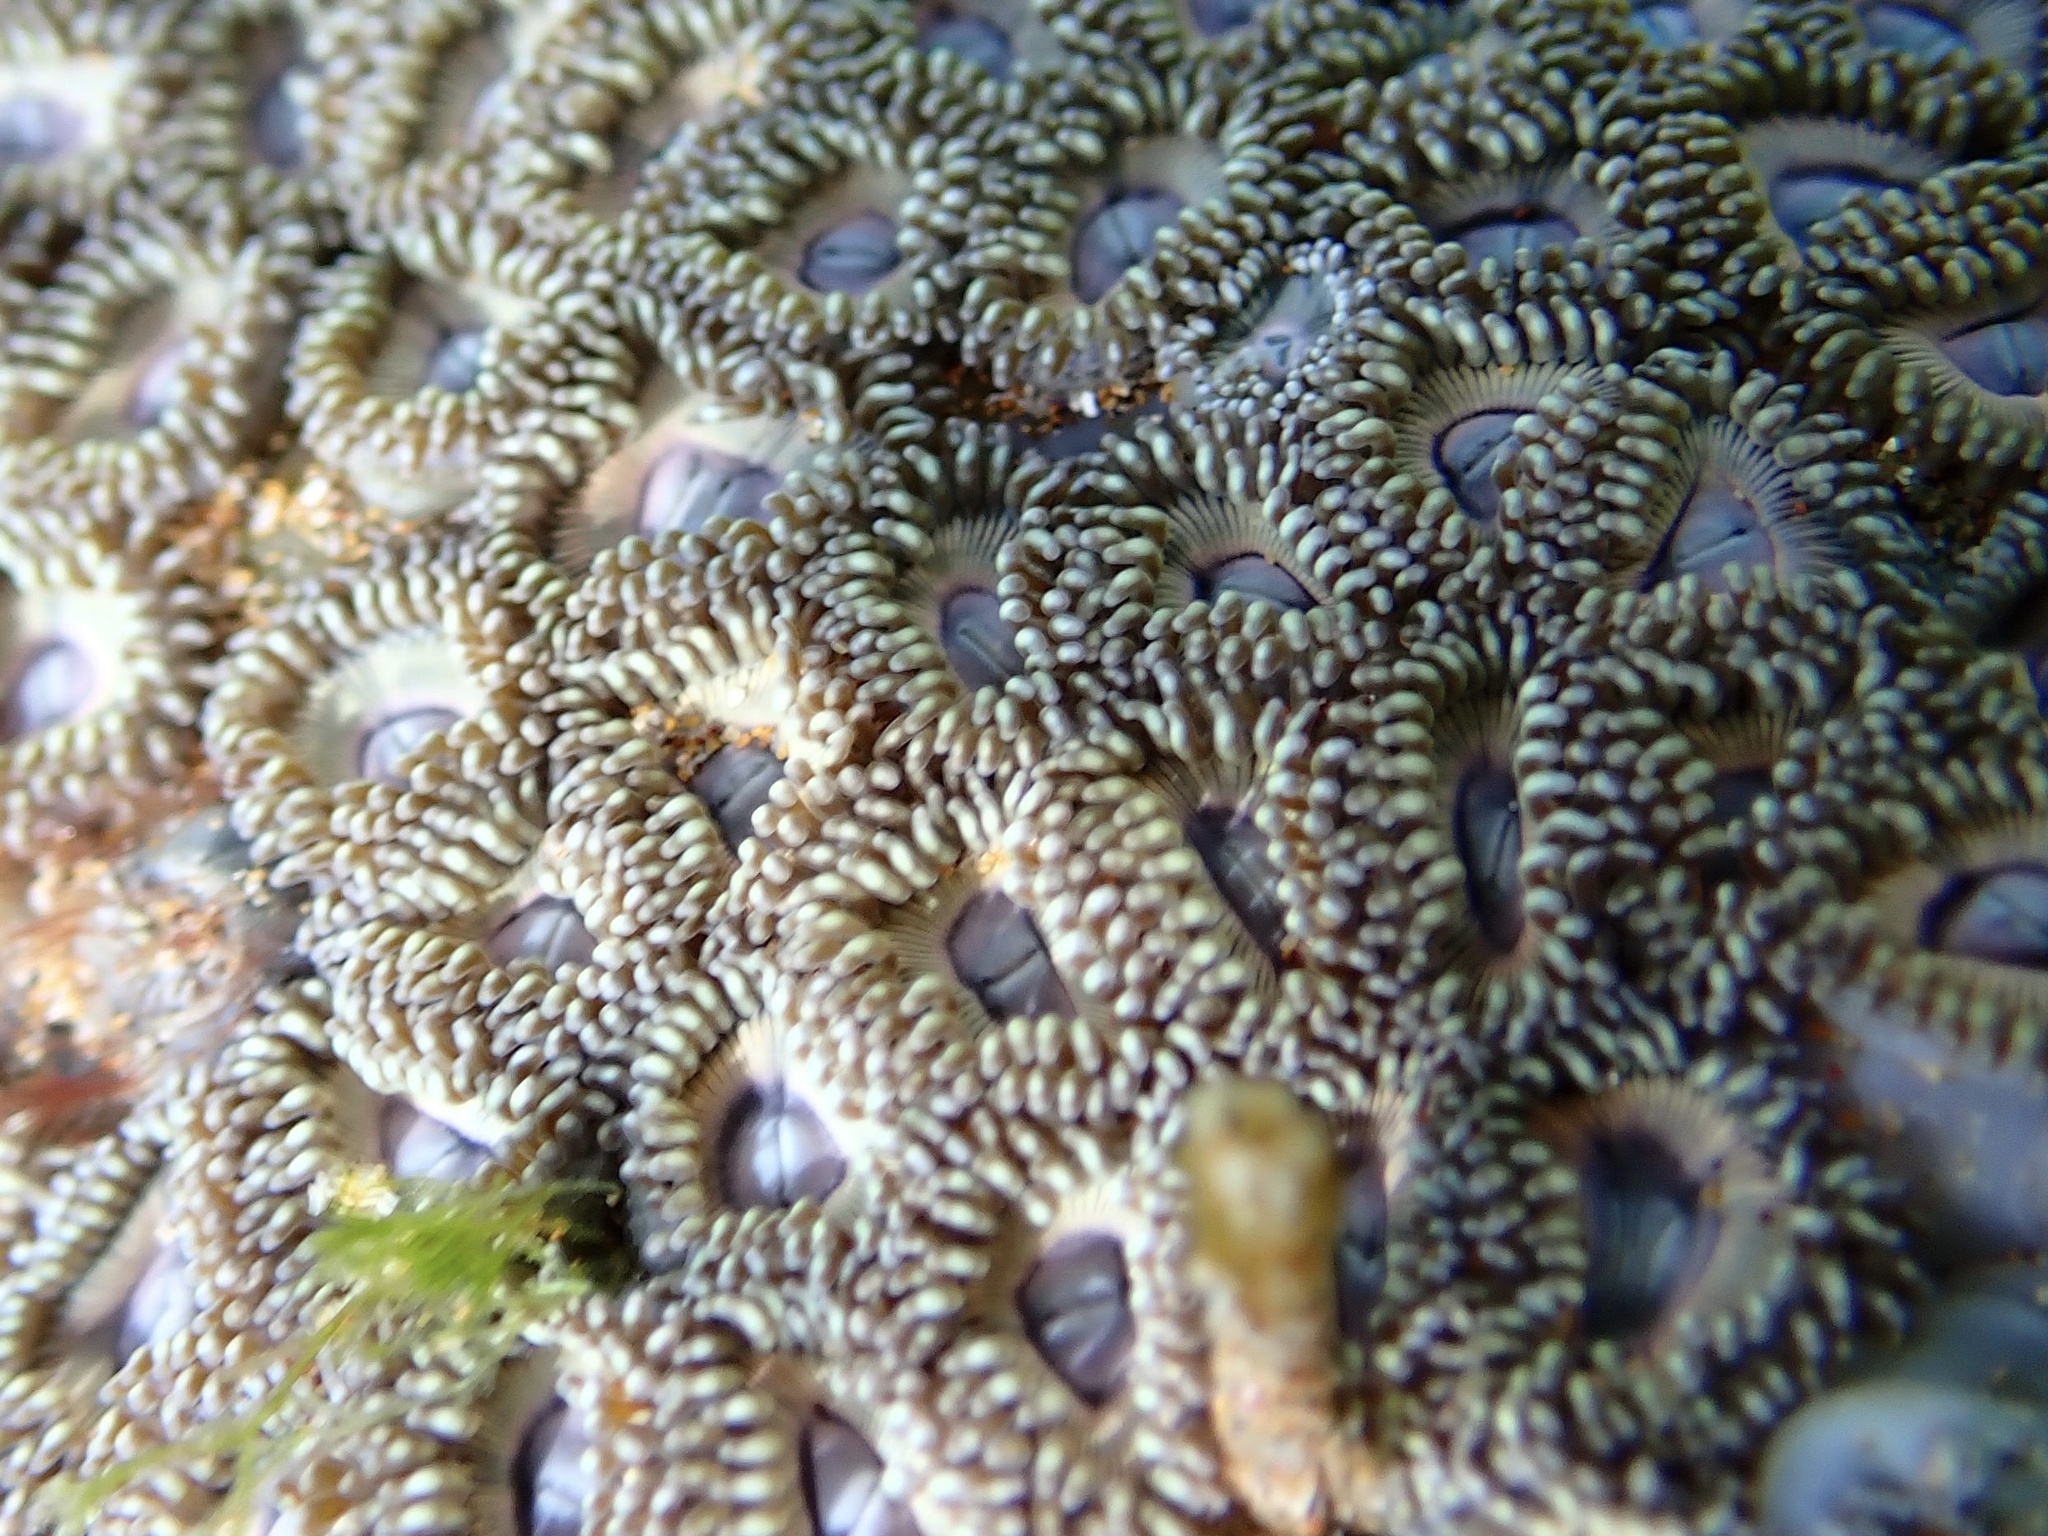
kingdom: Animalia
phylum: Cnidaria
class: Anthozoa
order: Zoantharia
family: Zoanthidae
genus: Zoanthus
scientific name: Zoanthus kuroshio
